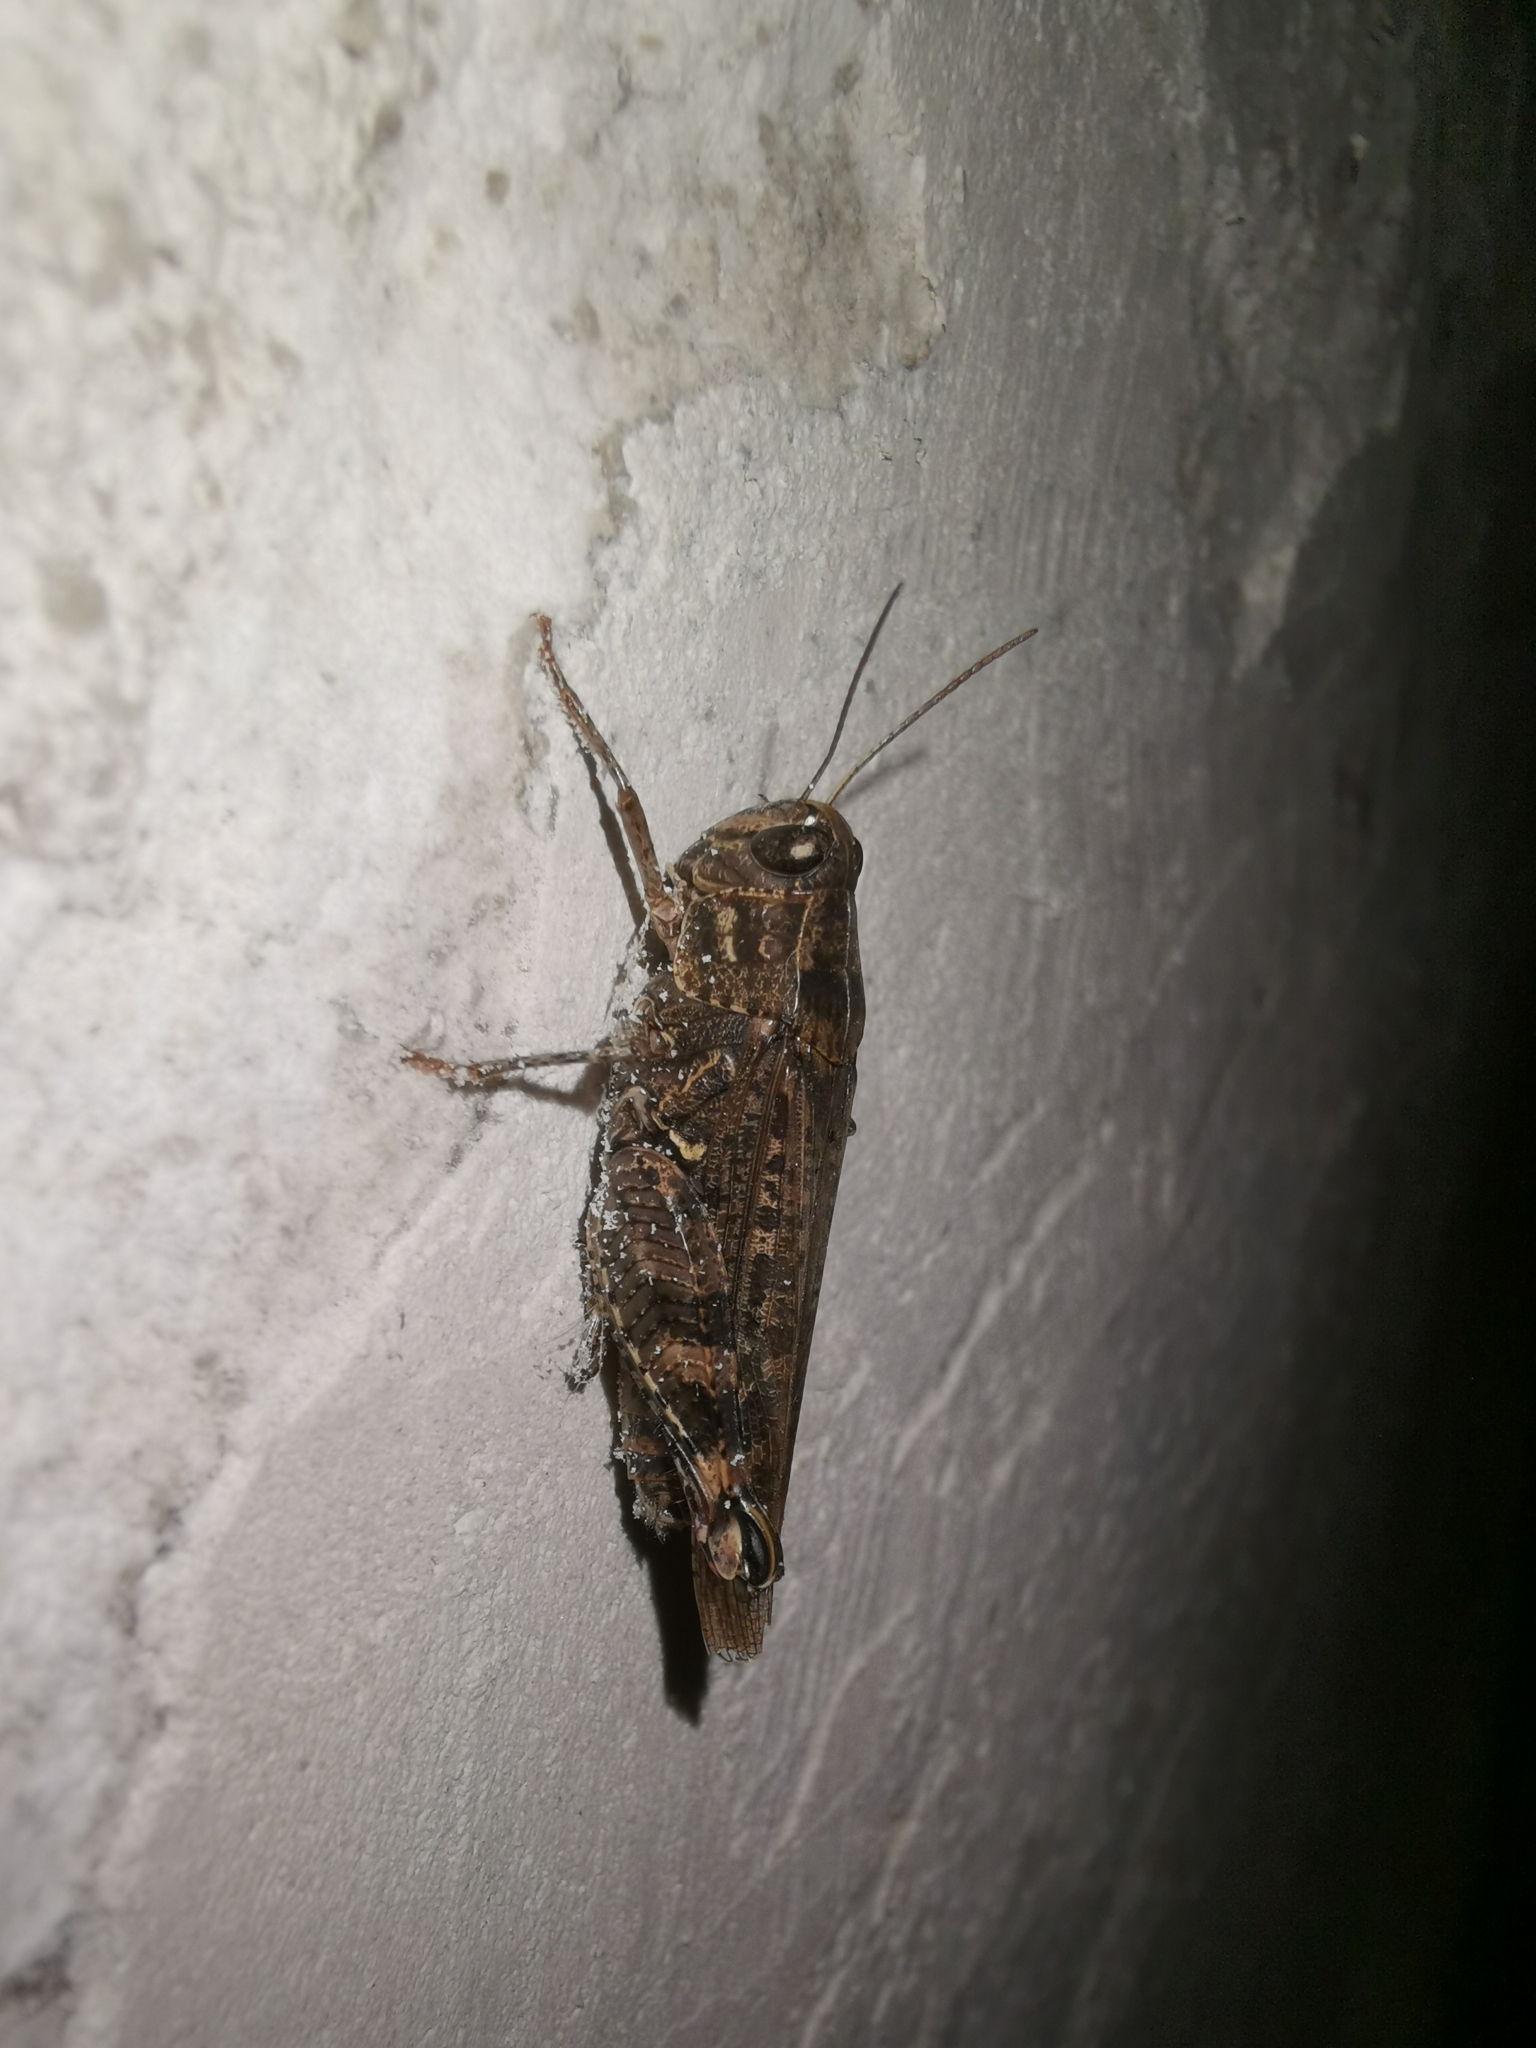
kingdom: Animalia
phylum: Arthropoda
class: Insecta
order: Orthoptera
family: Acrididae
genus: Calliptamus
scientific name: Calliptamus italicus
